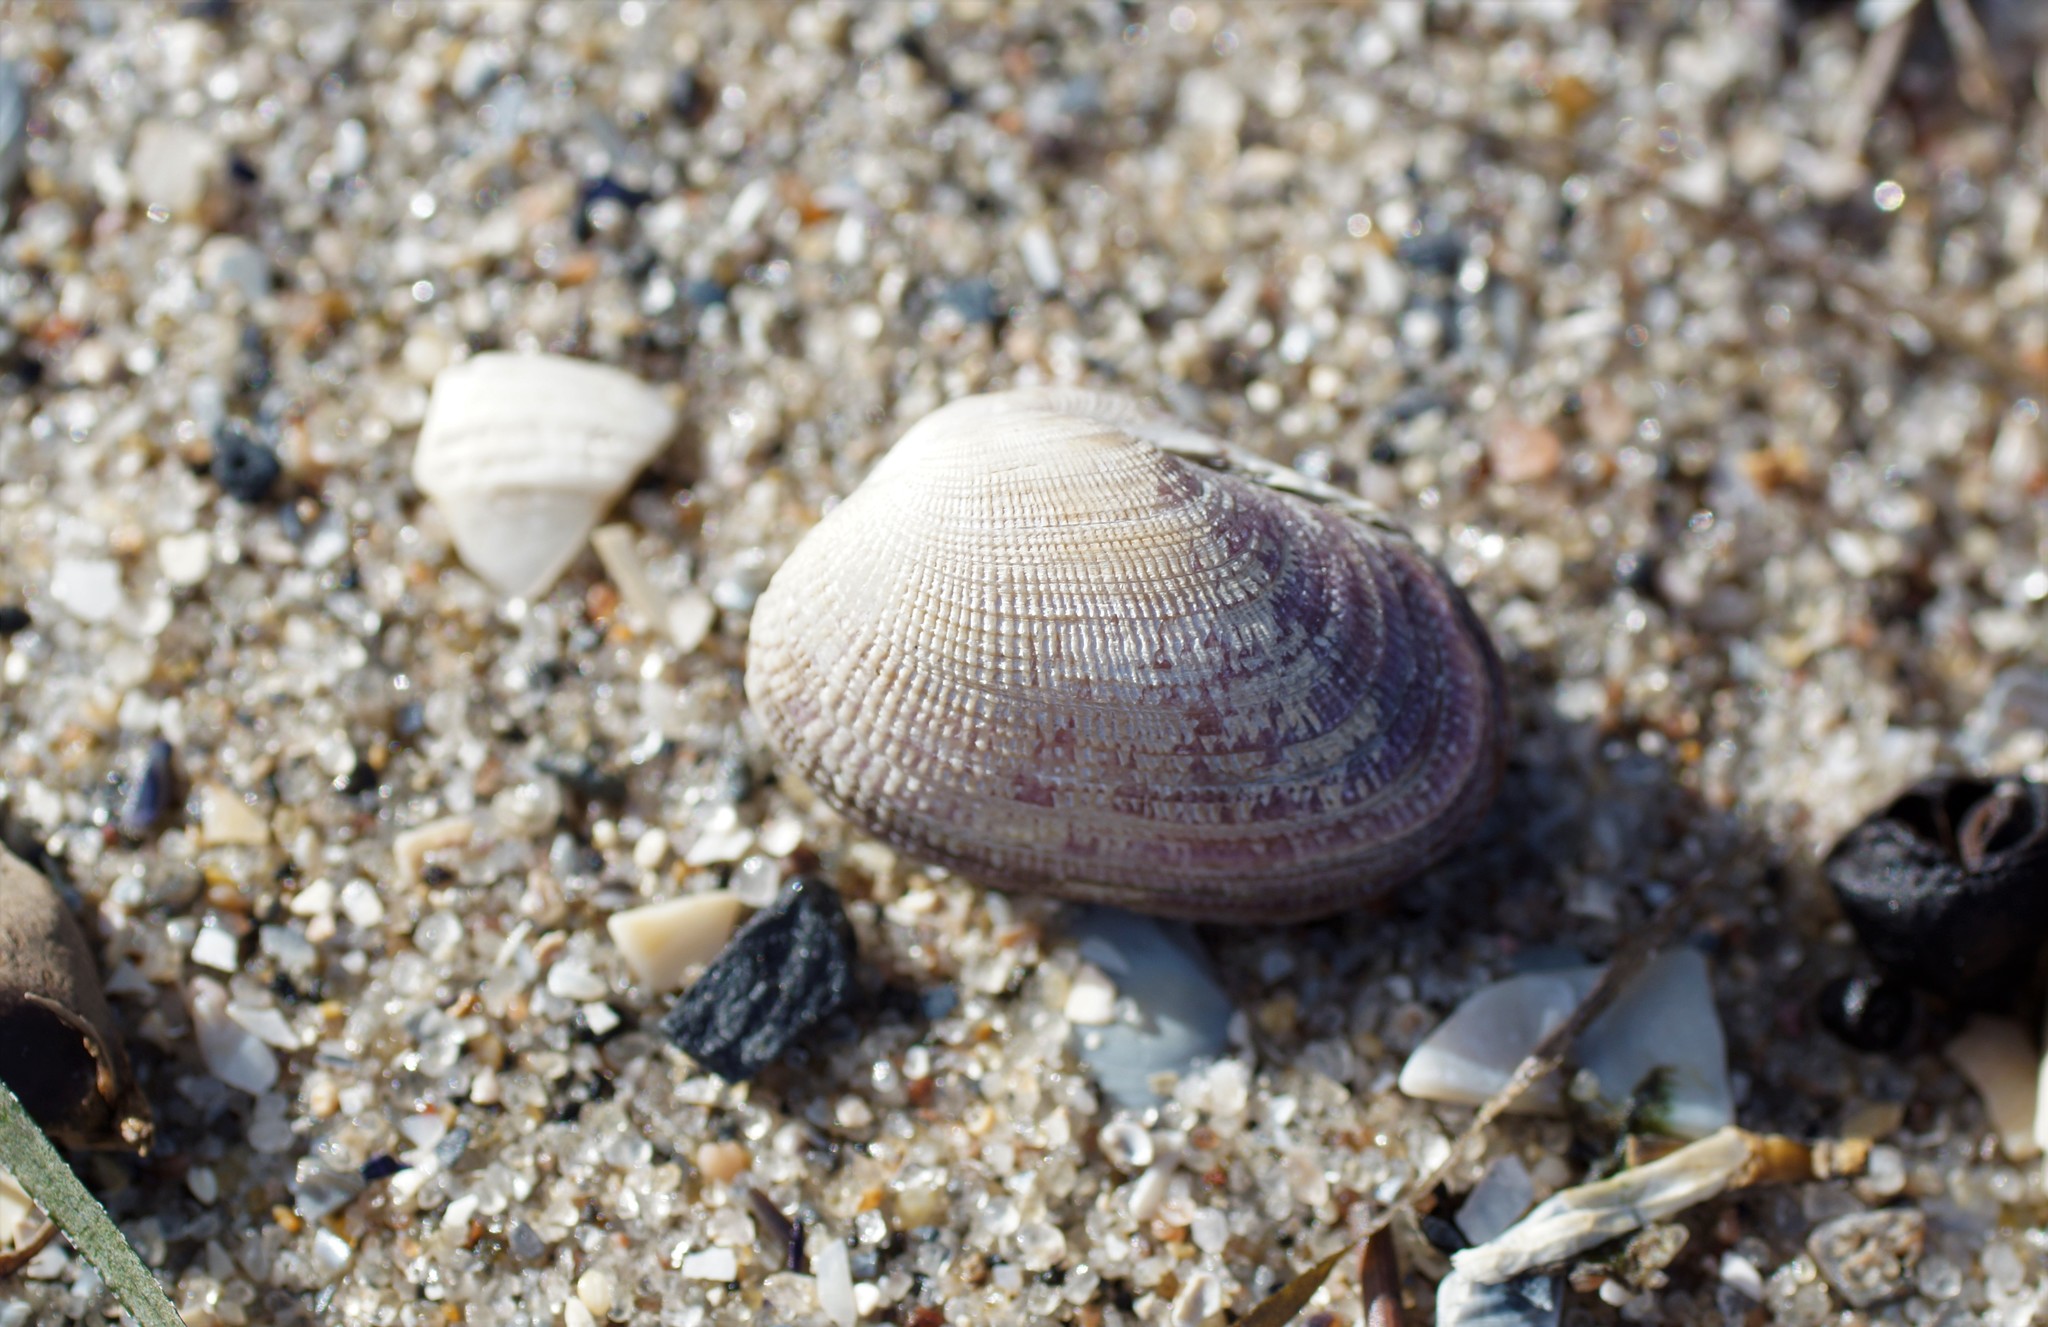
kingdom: Animalia
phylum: Mollusca
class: Bivalvia
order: Venerida
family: Veneridae
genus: Irus
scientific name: Irus crenatus
